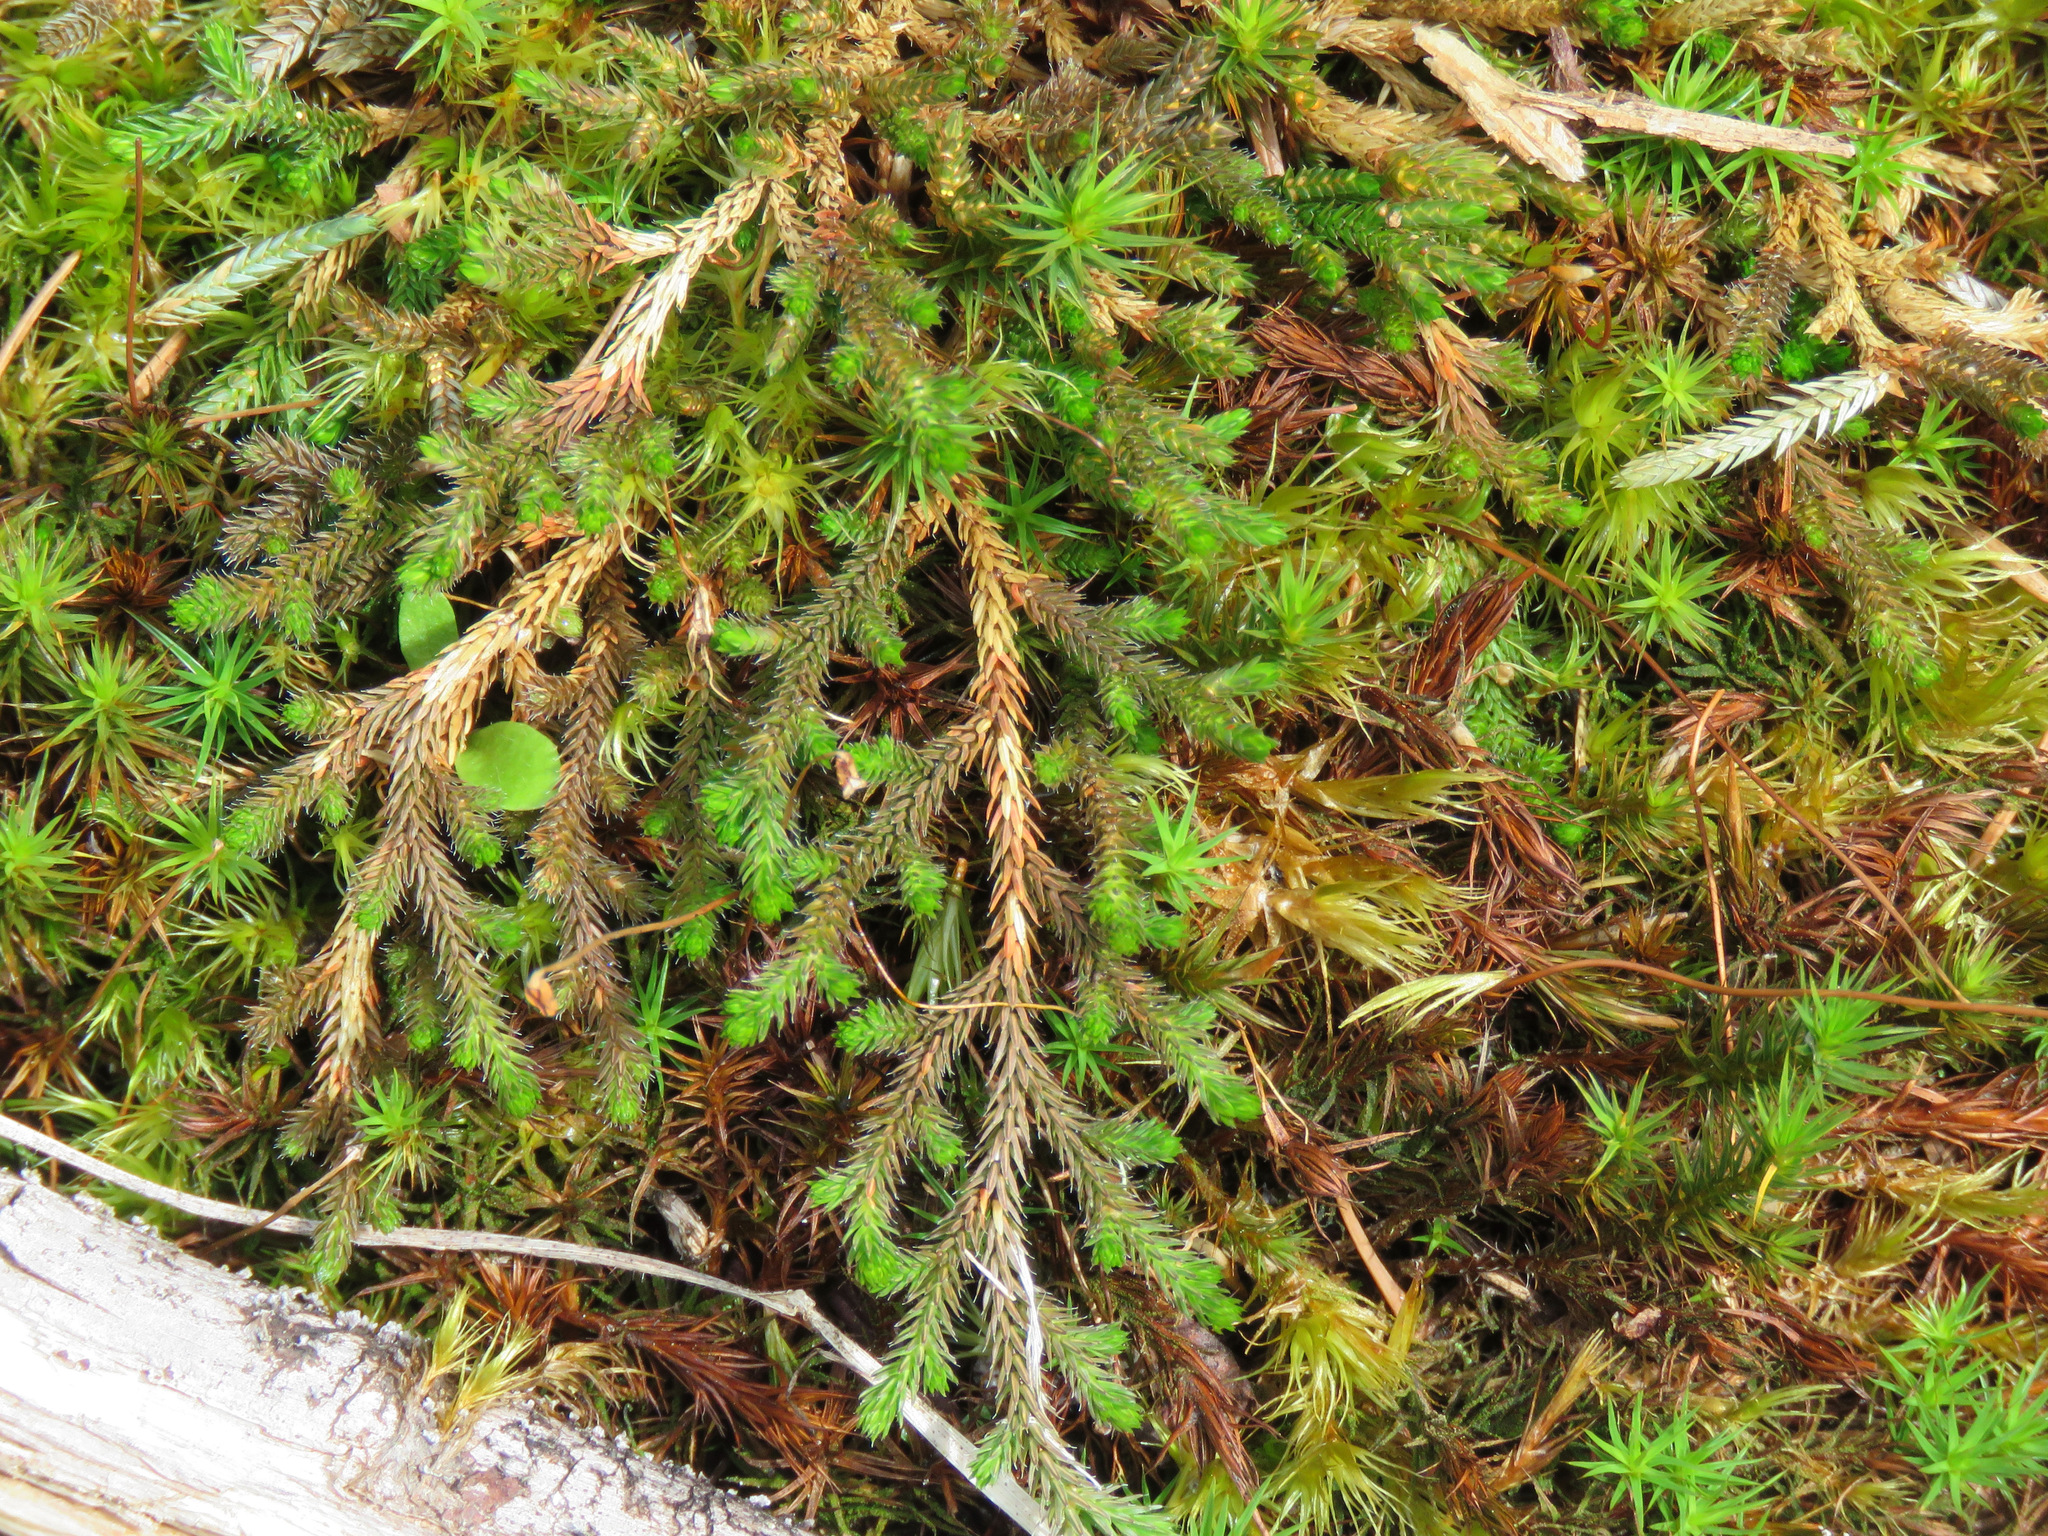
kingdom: Plantae
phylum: Tracheophyta
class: Lycopodiopsida
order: Selaginellales
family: Selaginellaceae
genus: Selaginella
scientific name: Selaginella wallacei
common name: Wallace's selaginella
